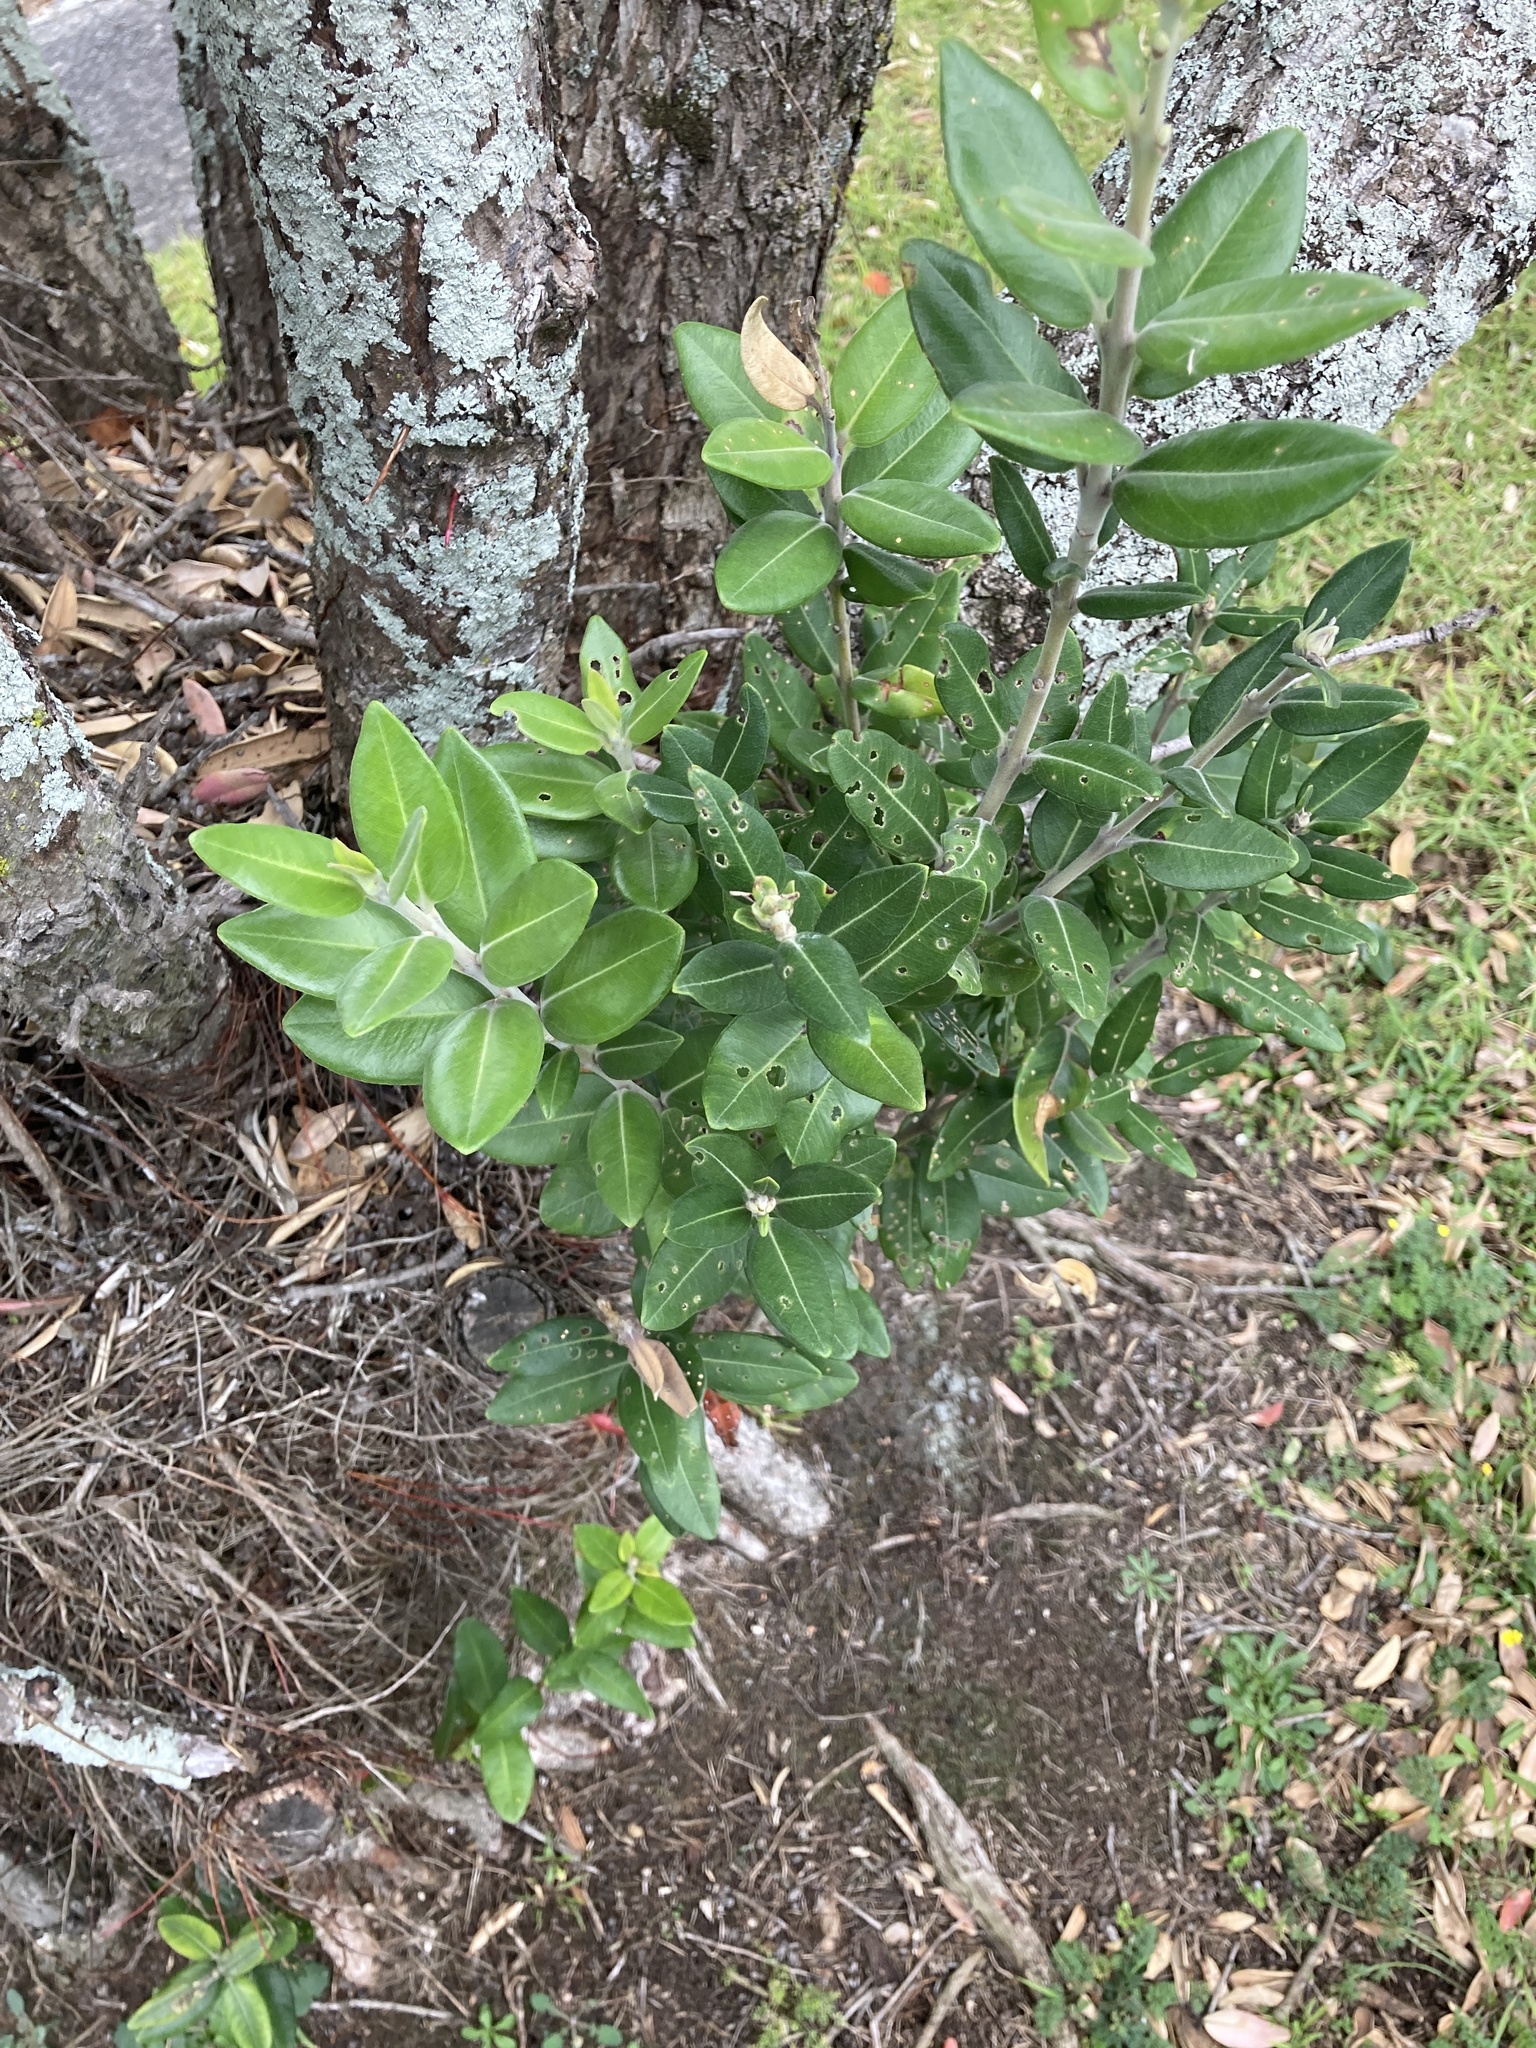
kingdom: Plantae
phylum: Tracheophyta
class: Magnoliopsida
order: Myrtales
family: Myrtaceae
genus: Metrosideros
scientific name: Metrosideros excelsa
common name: New zealand christmastree
